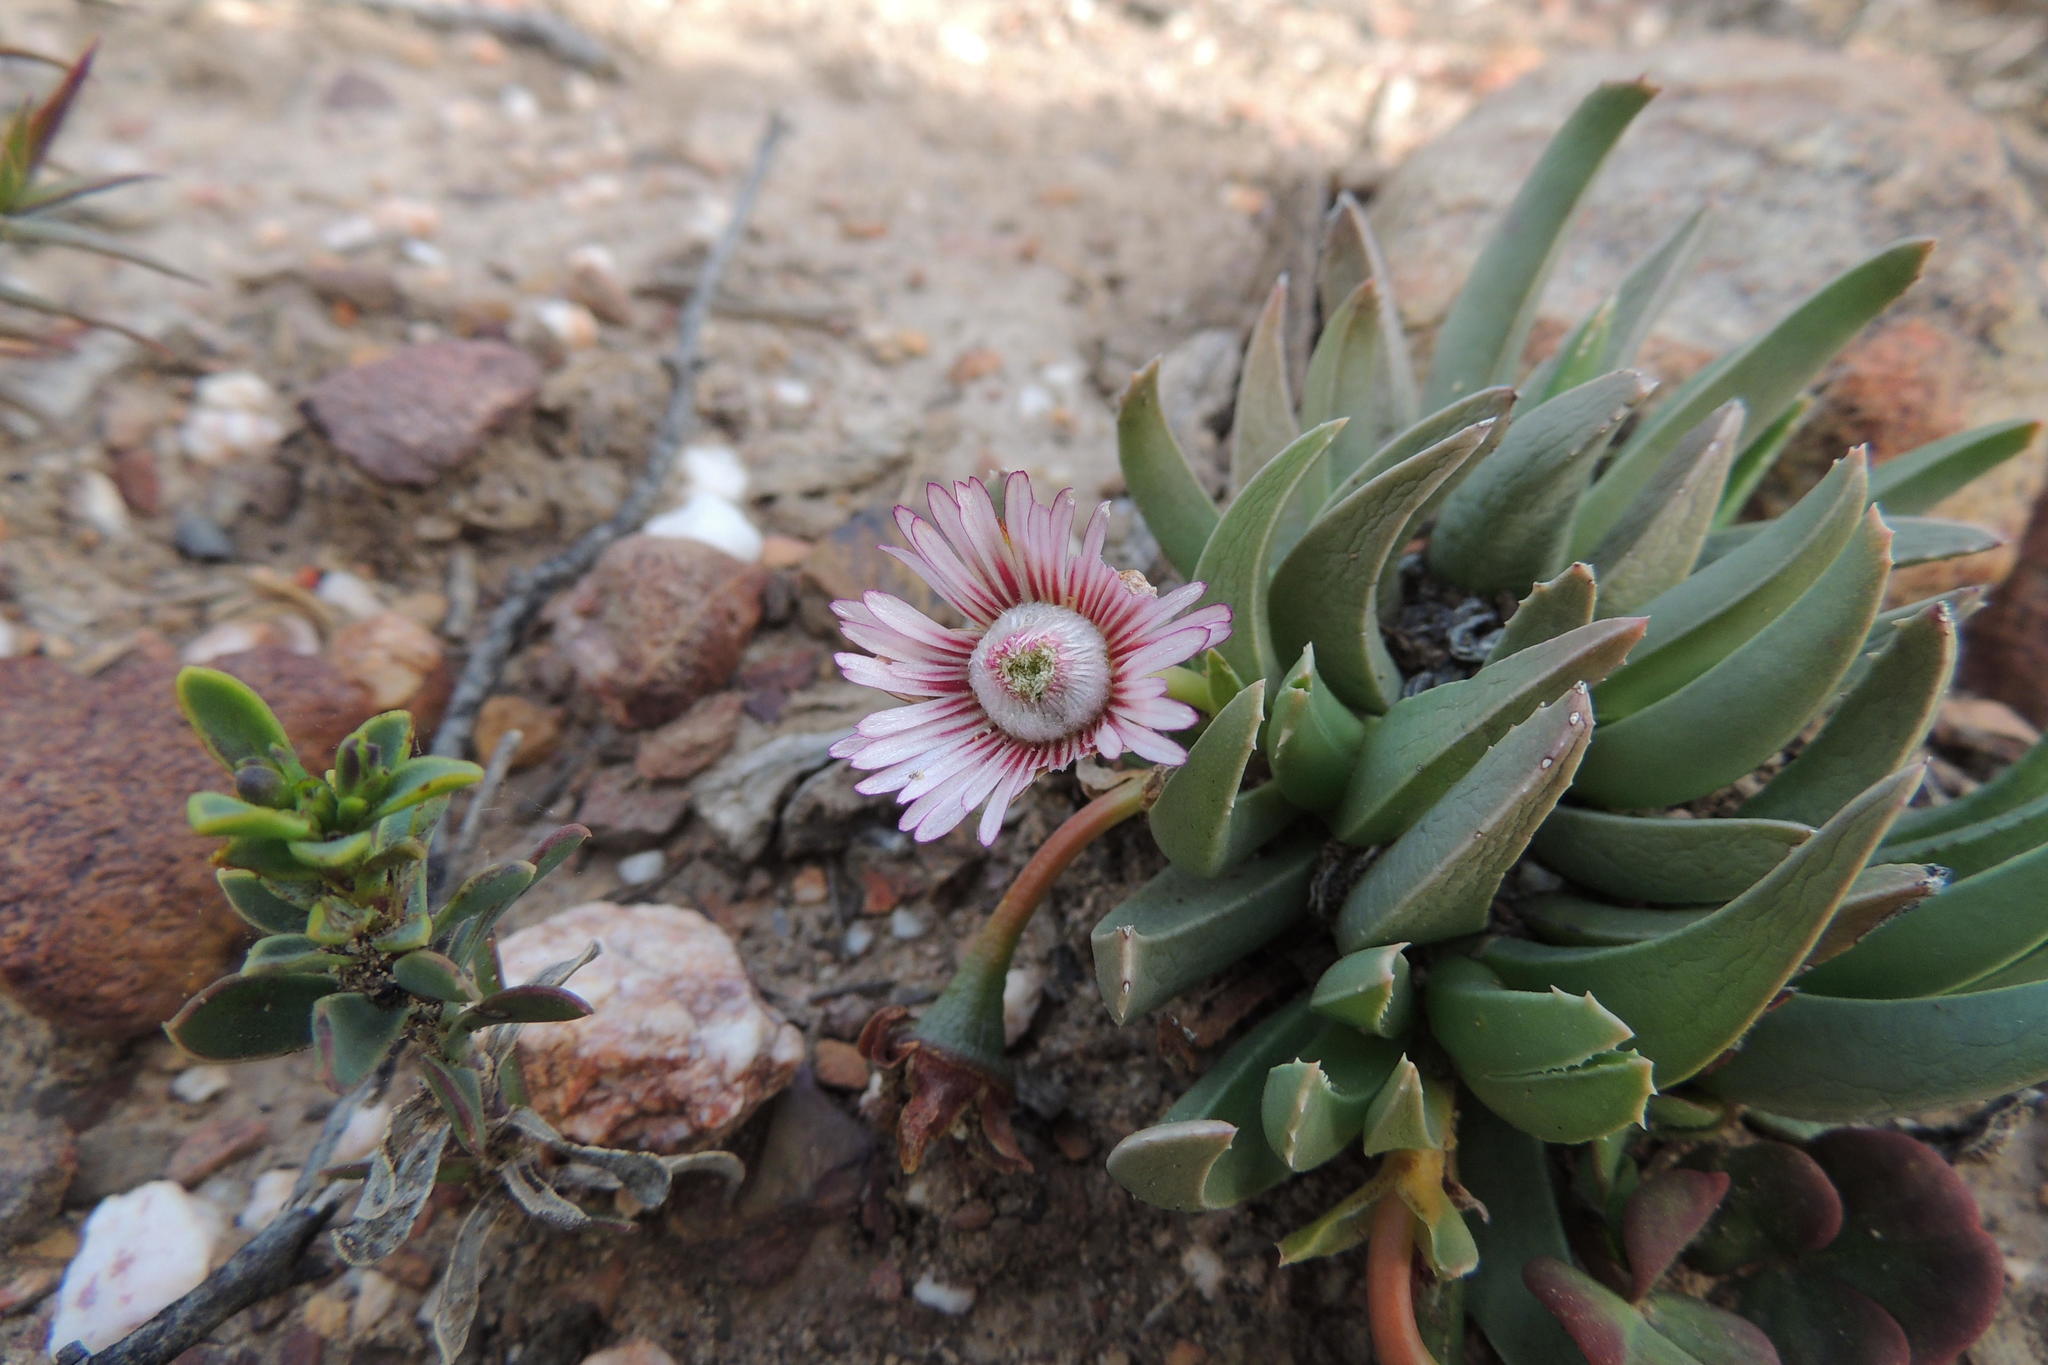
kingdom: Plantae
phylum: Tracheophyta
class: Magnoliopsida
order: Caryophyllales
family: Aizoaceae
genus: Acrodon
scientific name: Acrodon bellidiflorus
